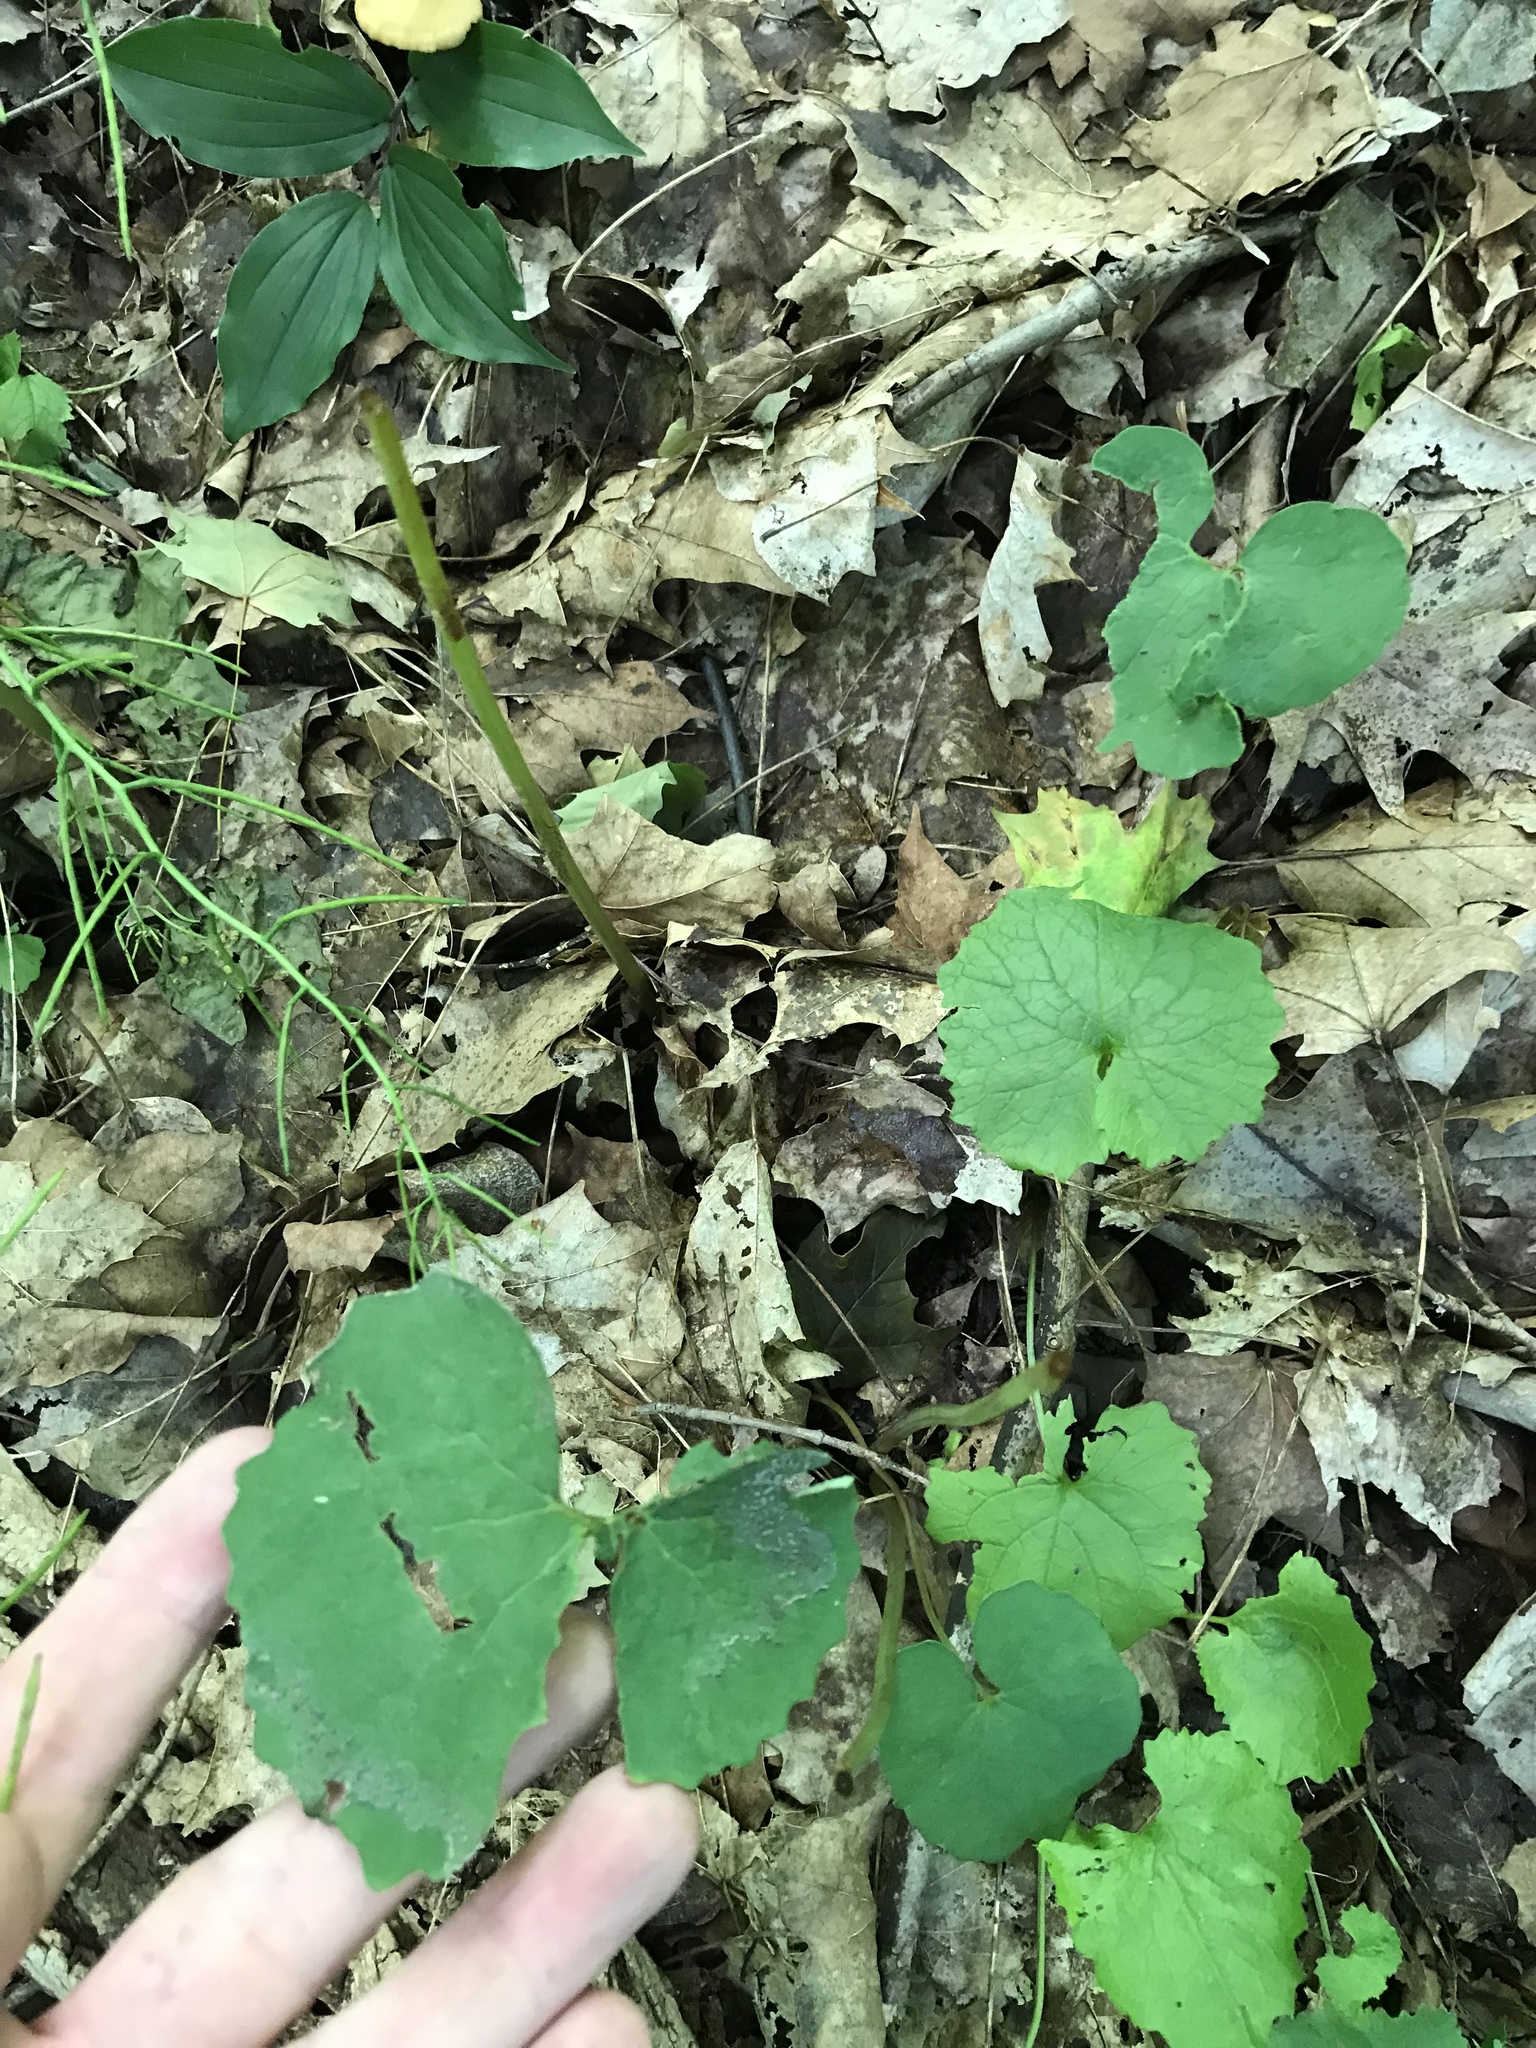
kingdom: Plantae
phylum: Tracheophyta
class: Magnoliopsida
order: Ranunculales
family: Papaveraceae
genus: Sanguinaria
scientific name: Sanguinaria canadensis
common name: Bloodroot
